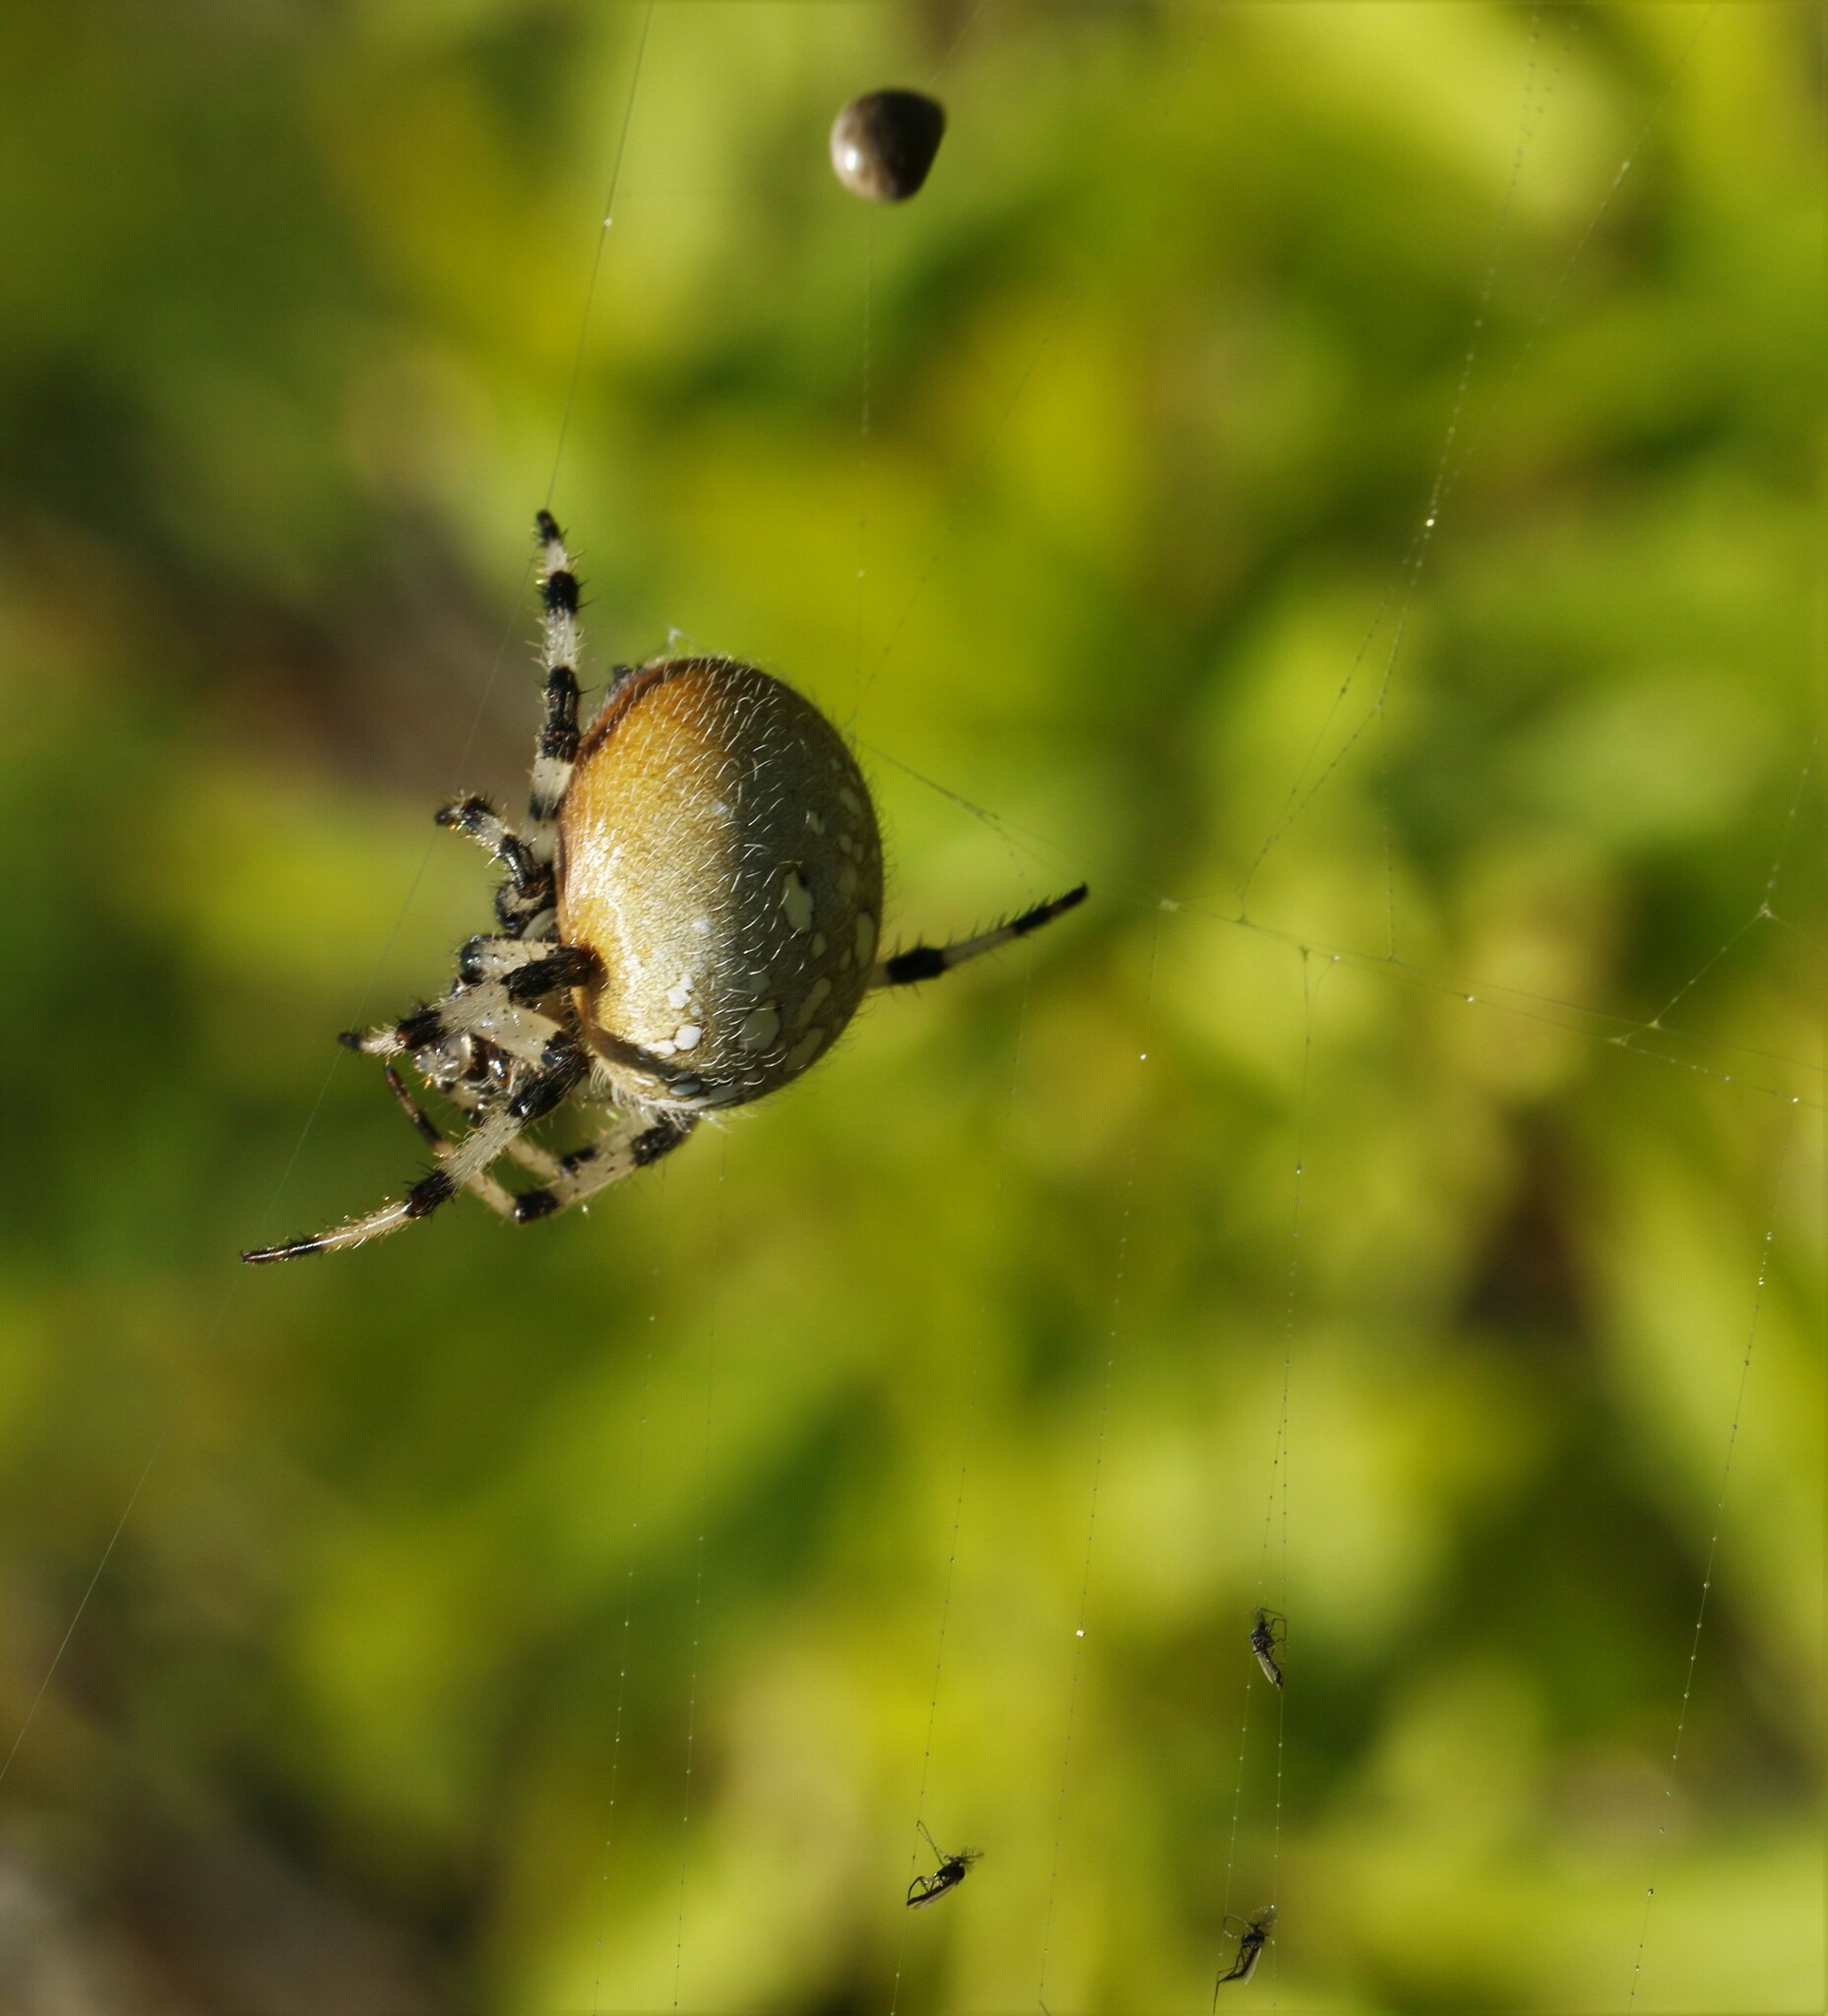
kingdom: Animalia
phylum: Arthropoda
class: Arachnida
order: Araneae
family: Araneidae
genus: Araneus
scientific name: Araneus trifolium
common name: Shamrock orbweaver
